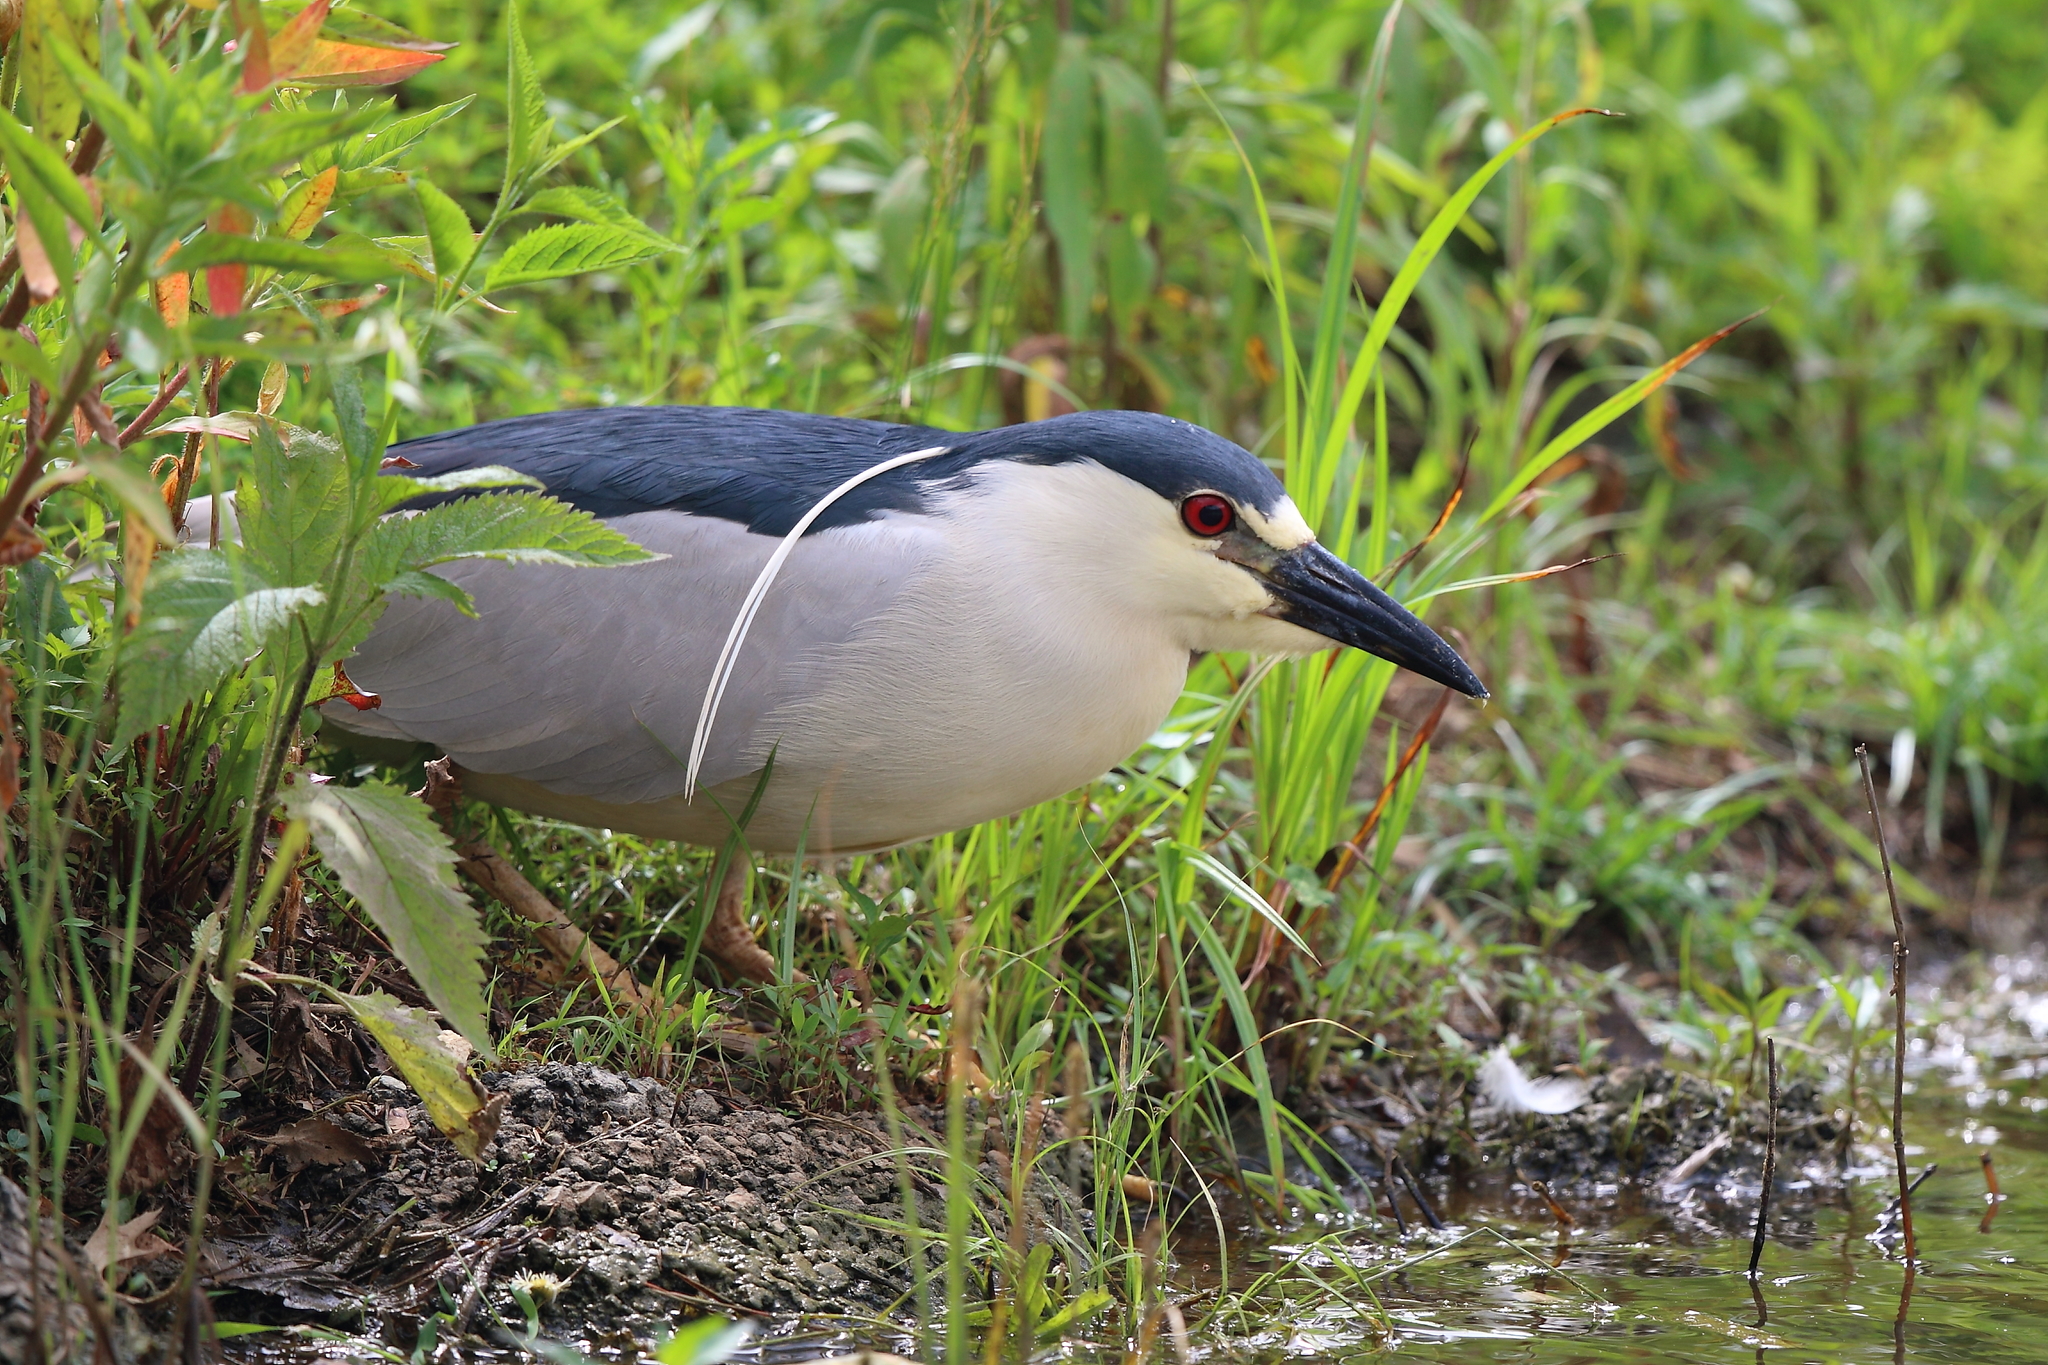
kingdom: Animalia
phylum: Chordata
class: Aves
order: Pelecaniformes
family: Ardeidae
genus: Nycticorax
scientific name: Nycticorax nycticorax
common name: Black-crowned night heron
